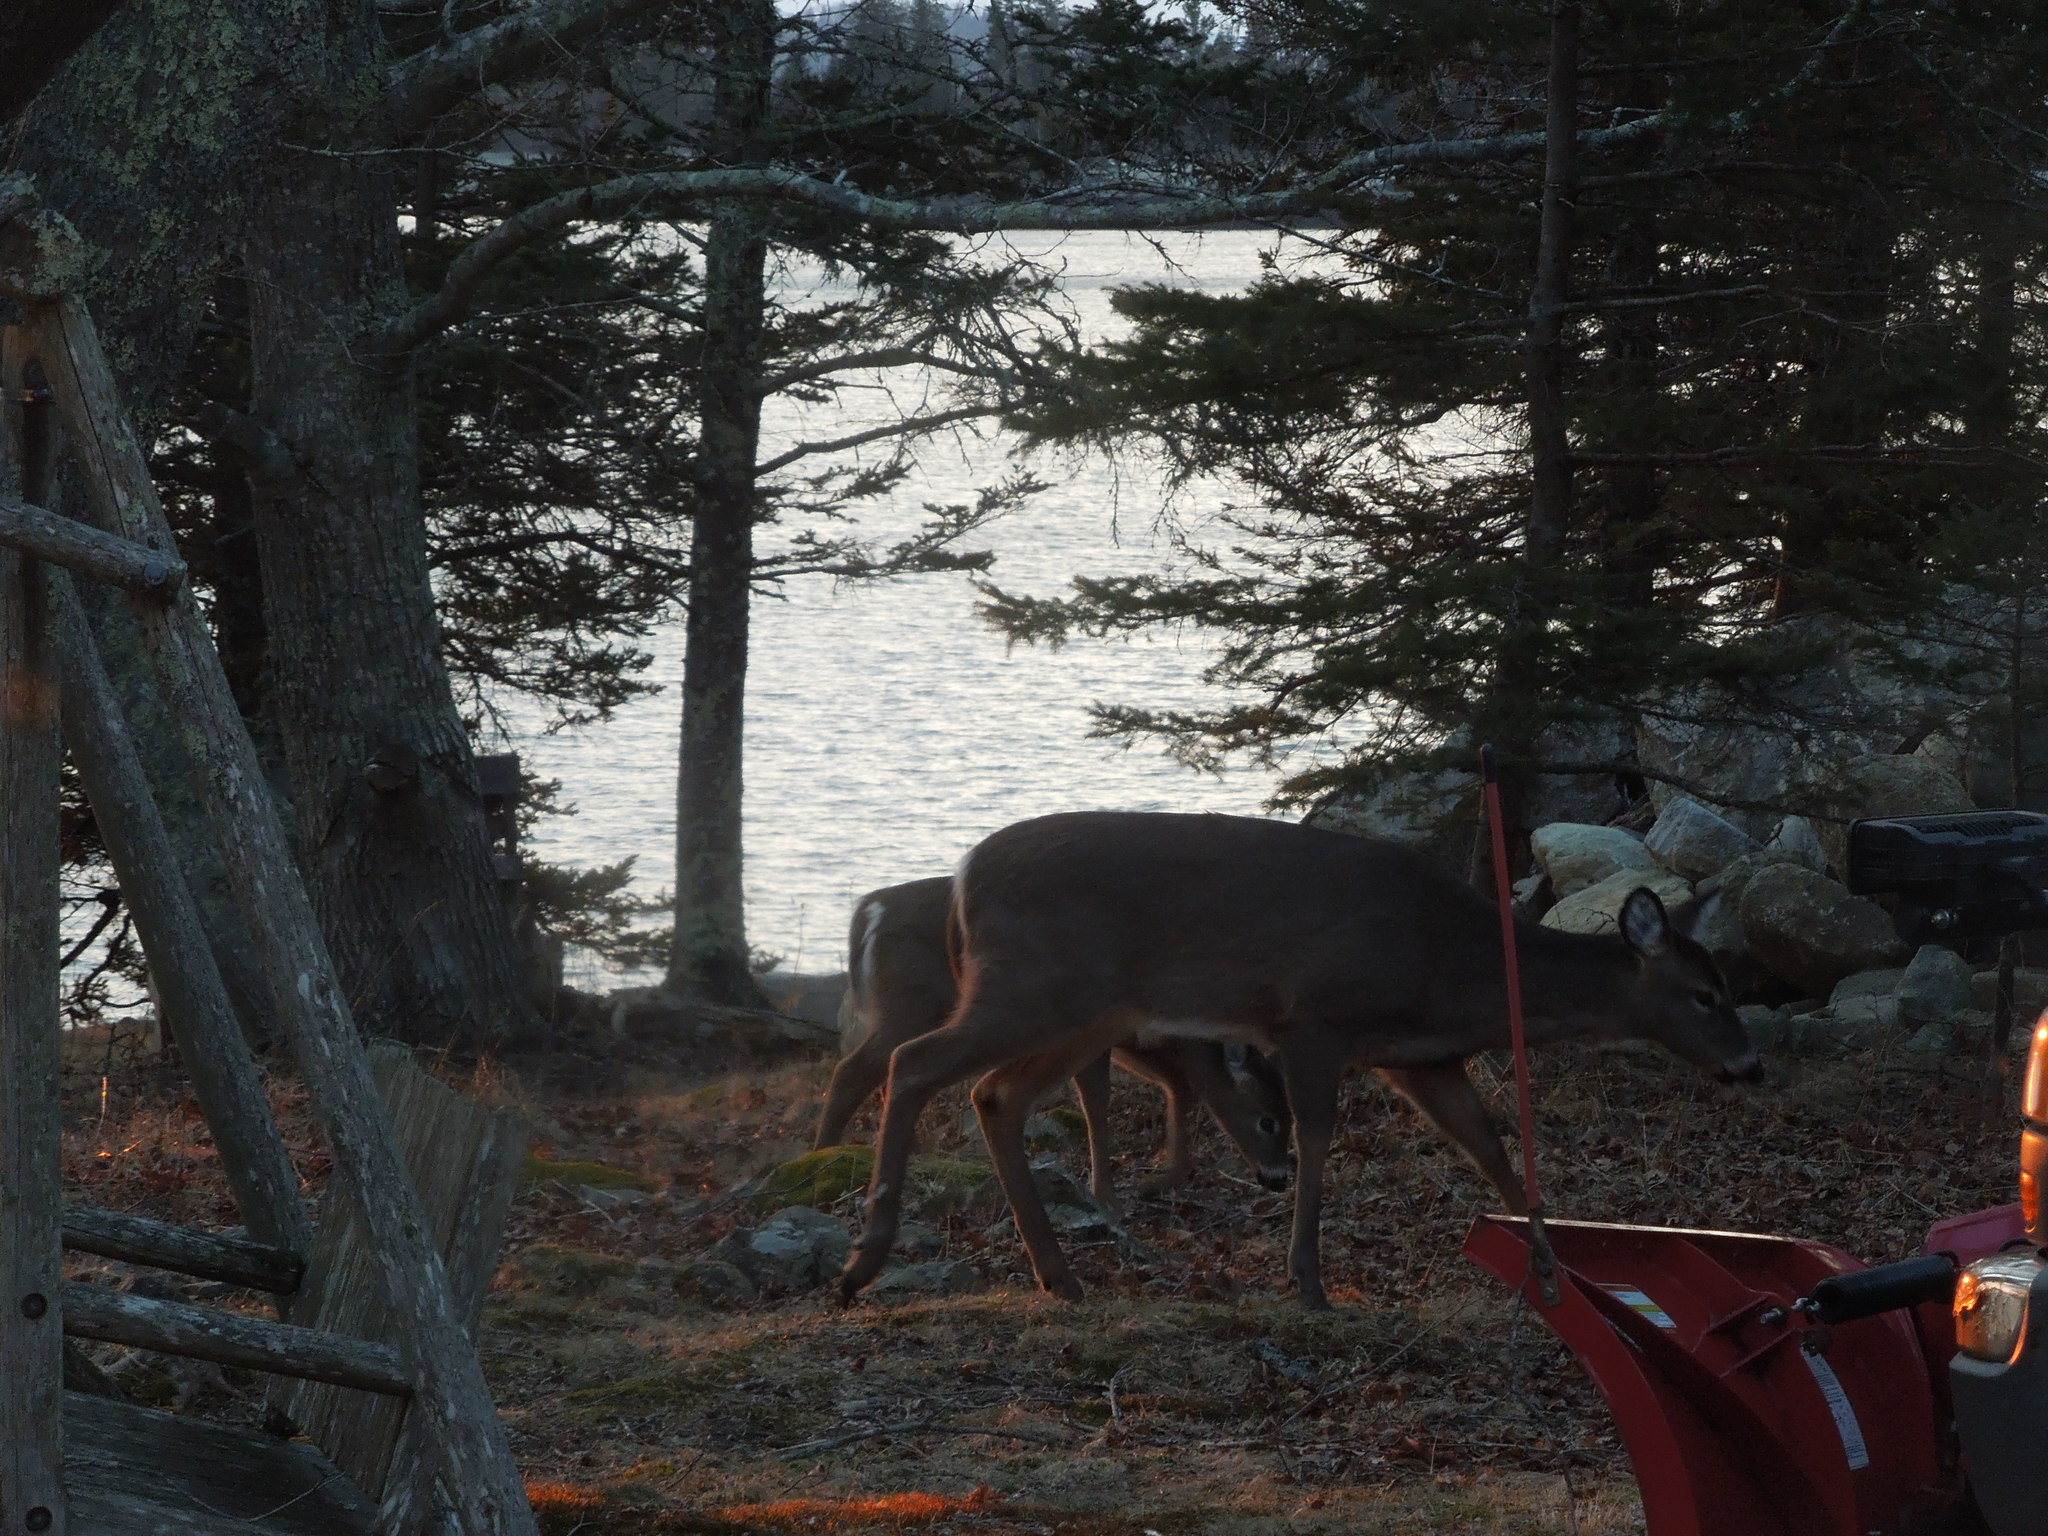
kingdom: Animalia
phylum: Chordata
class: Mammalia
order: Artiodactyla
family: Cervidae
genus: Odocoileus
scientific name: Odocoileus virginianus
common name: White-tailed deer
